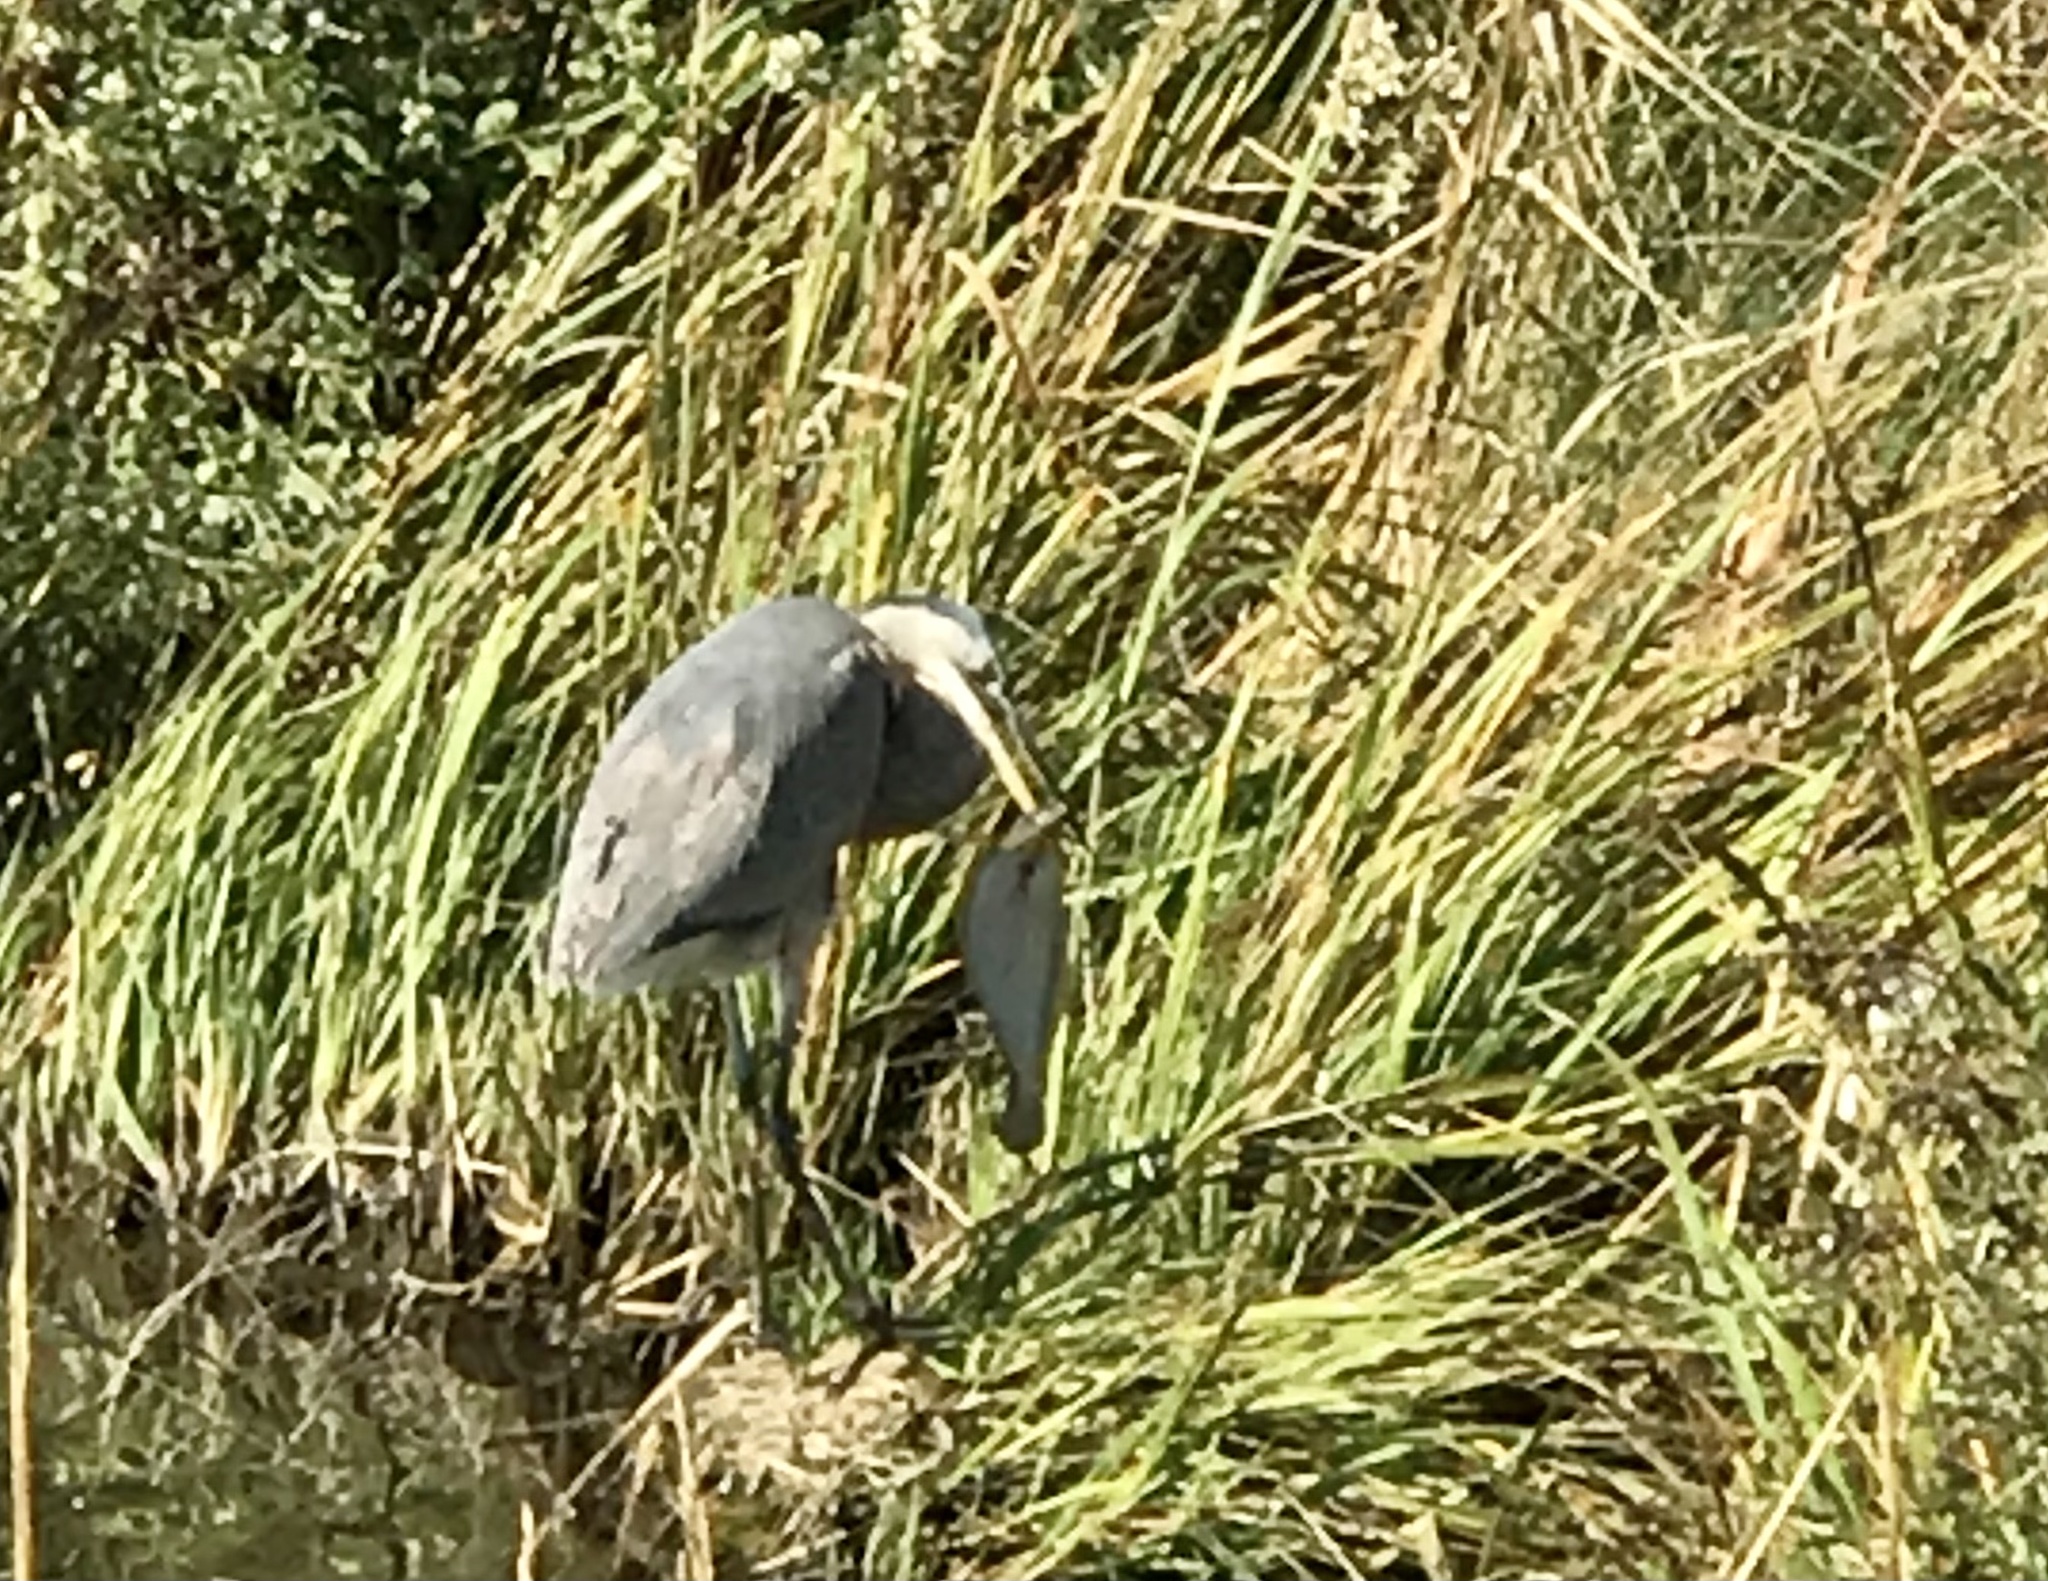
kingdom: Animalia
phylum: Chordata
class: Aves
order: Pelecaniformes
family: Ardeidae
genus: Ardea
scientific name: Ardea herodias
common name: Great blue heron
